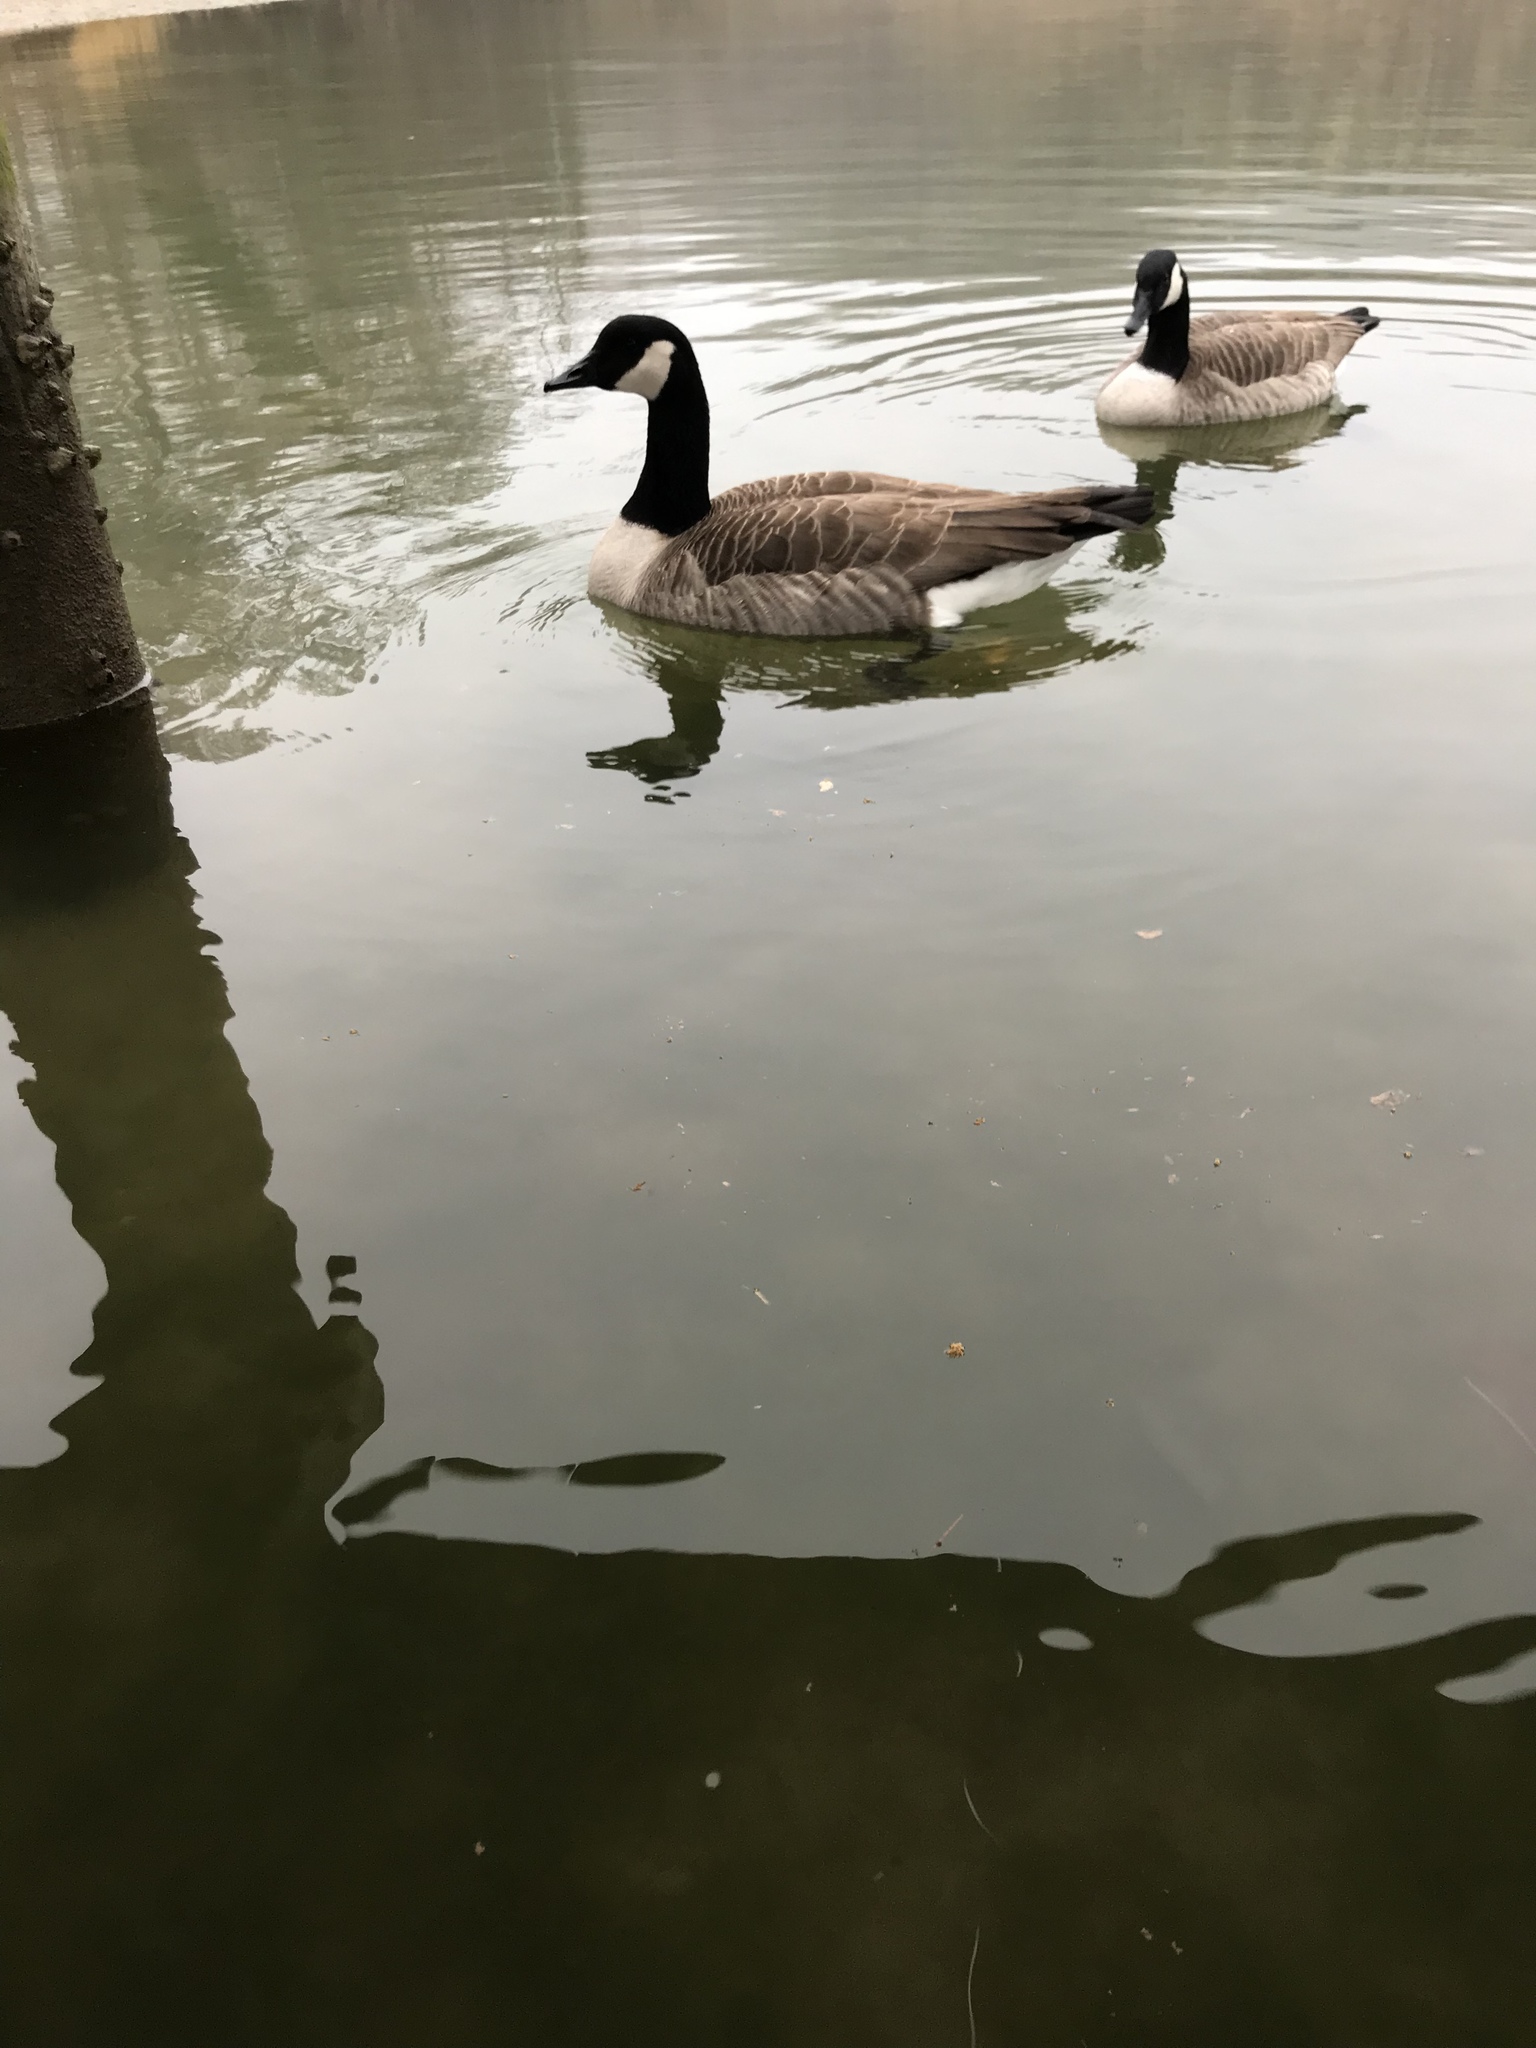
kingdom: Animalia
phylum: Chordata
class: Aves
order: Anseriformes
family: Anatidae
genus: Branta
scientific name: Branta canadensis
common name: Canada goose
